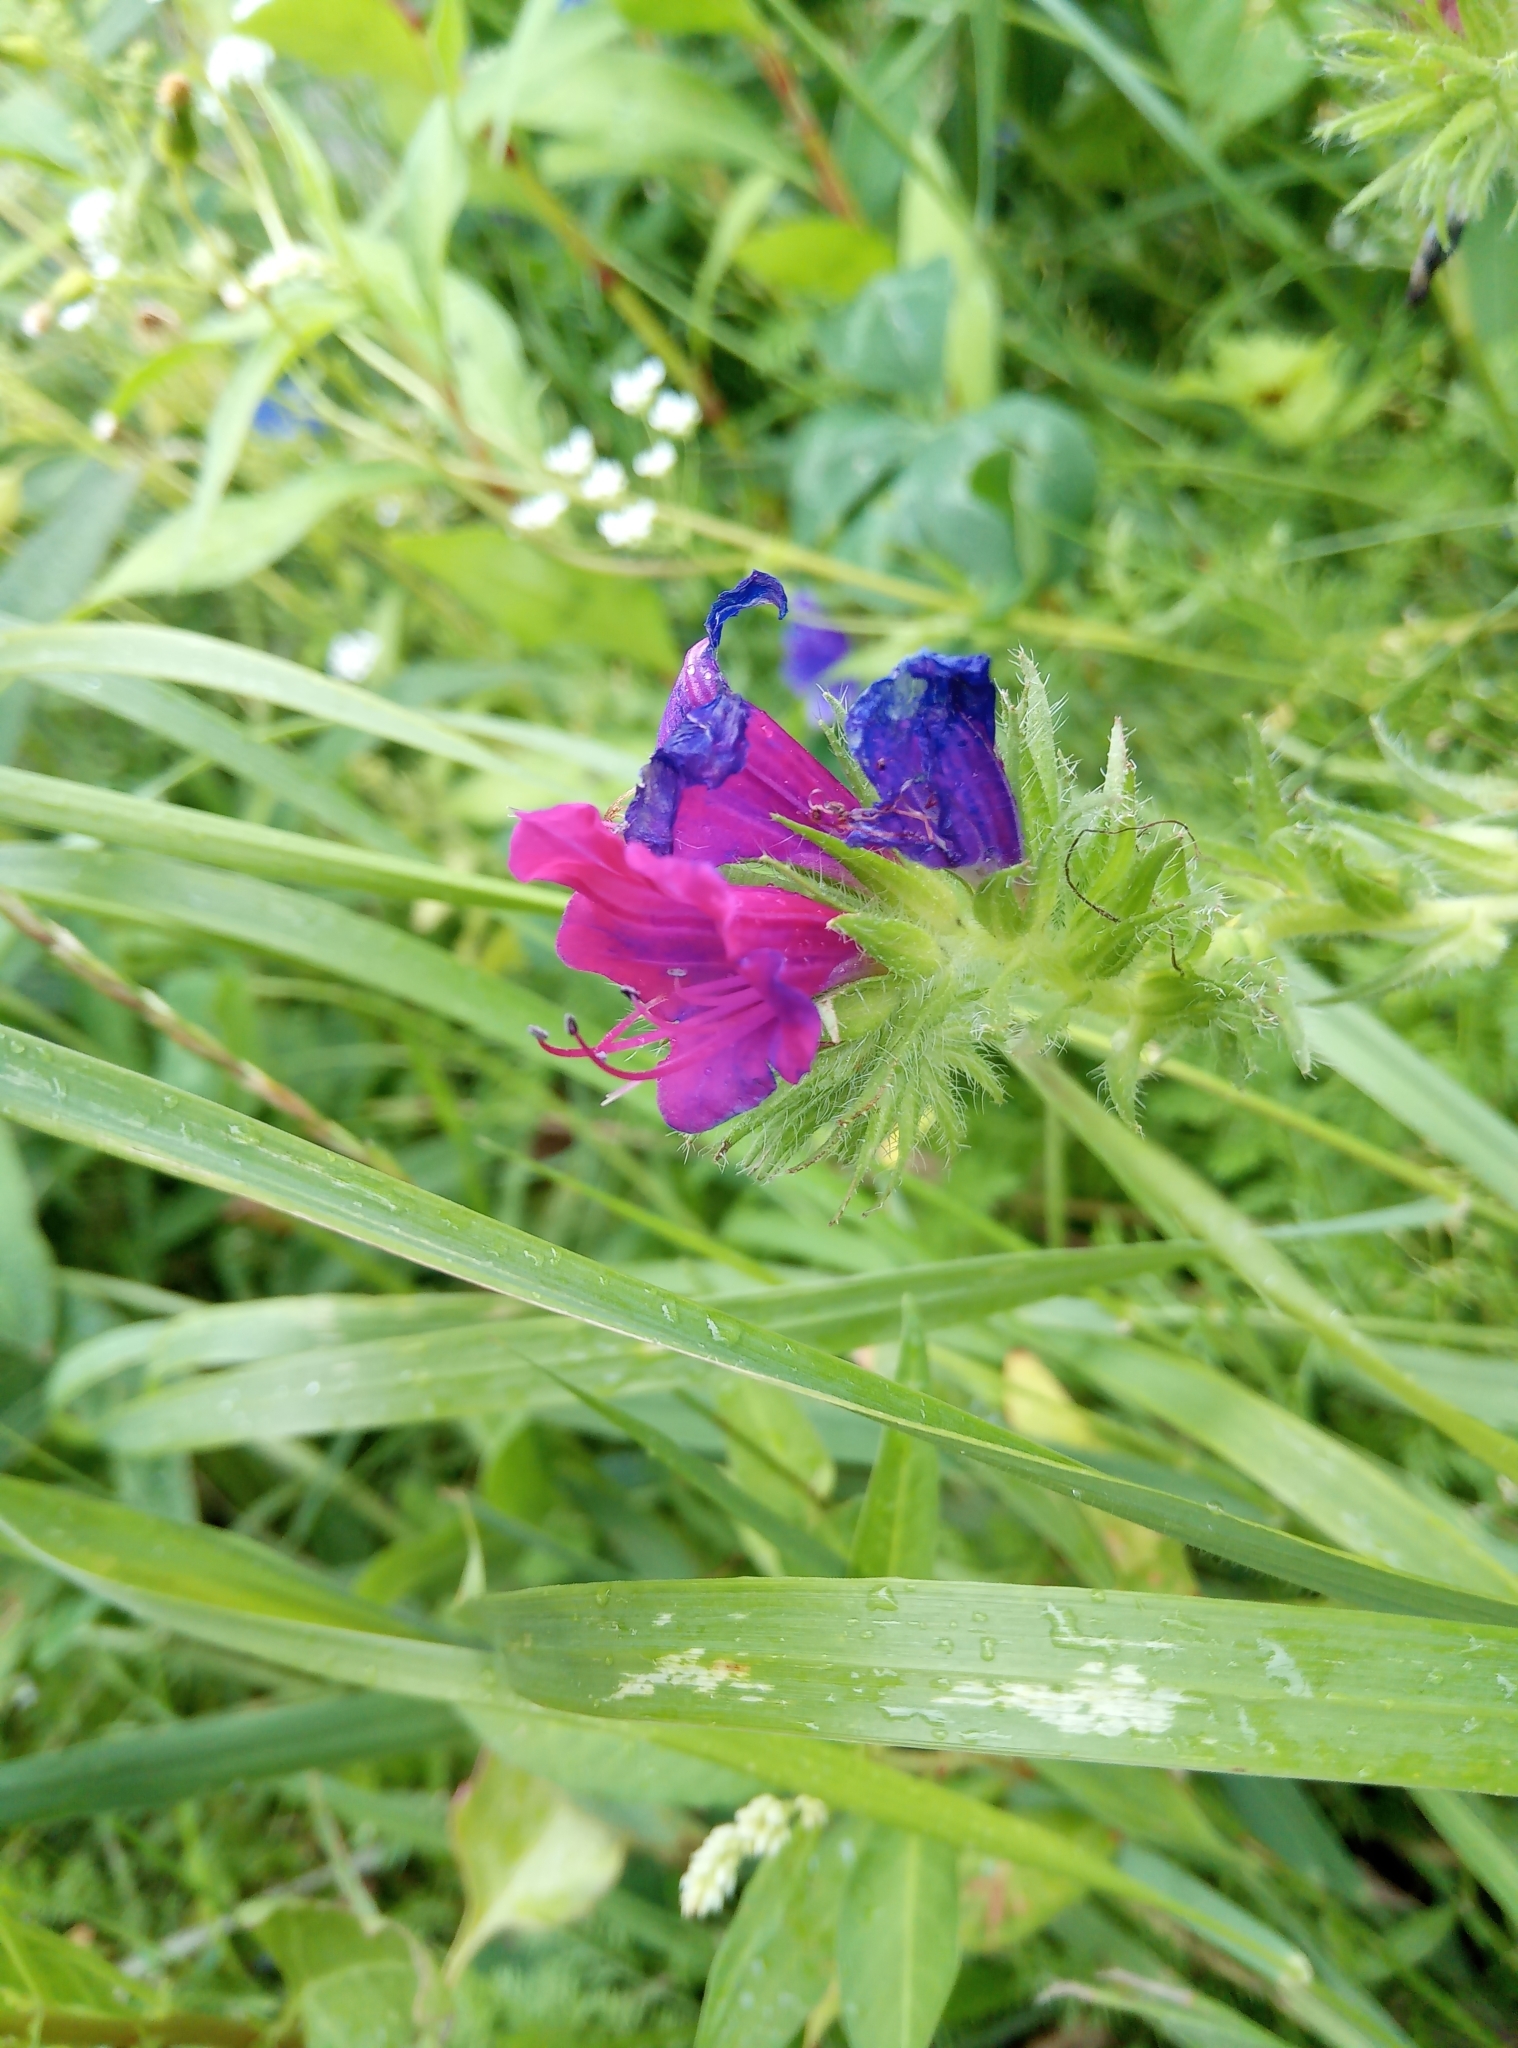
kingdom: Plantae
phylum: Tracheophyta
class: Magnoliopsida
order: Boraginales
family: Boraginaceae
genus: Echium
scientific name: Echium plantagineum
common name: Purple viper's-bugloss
